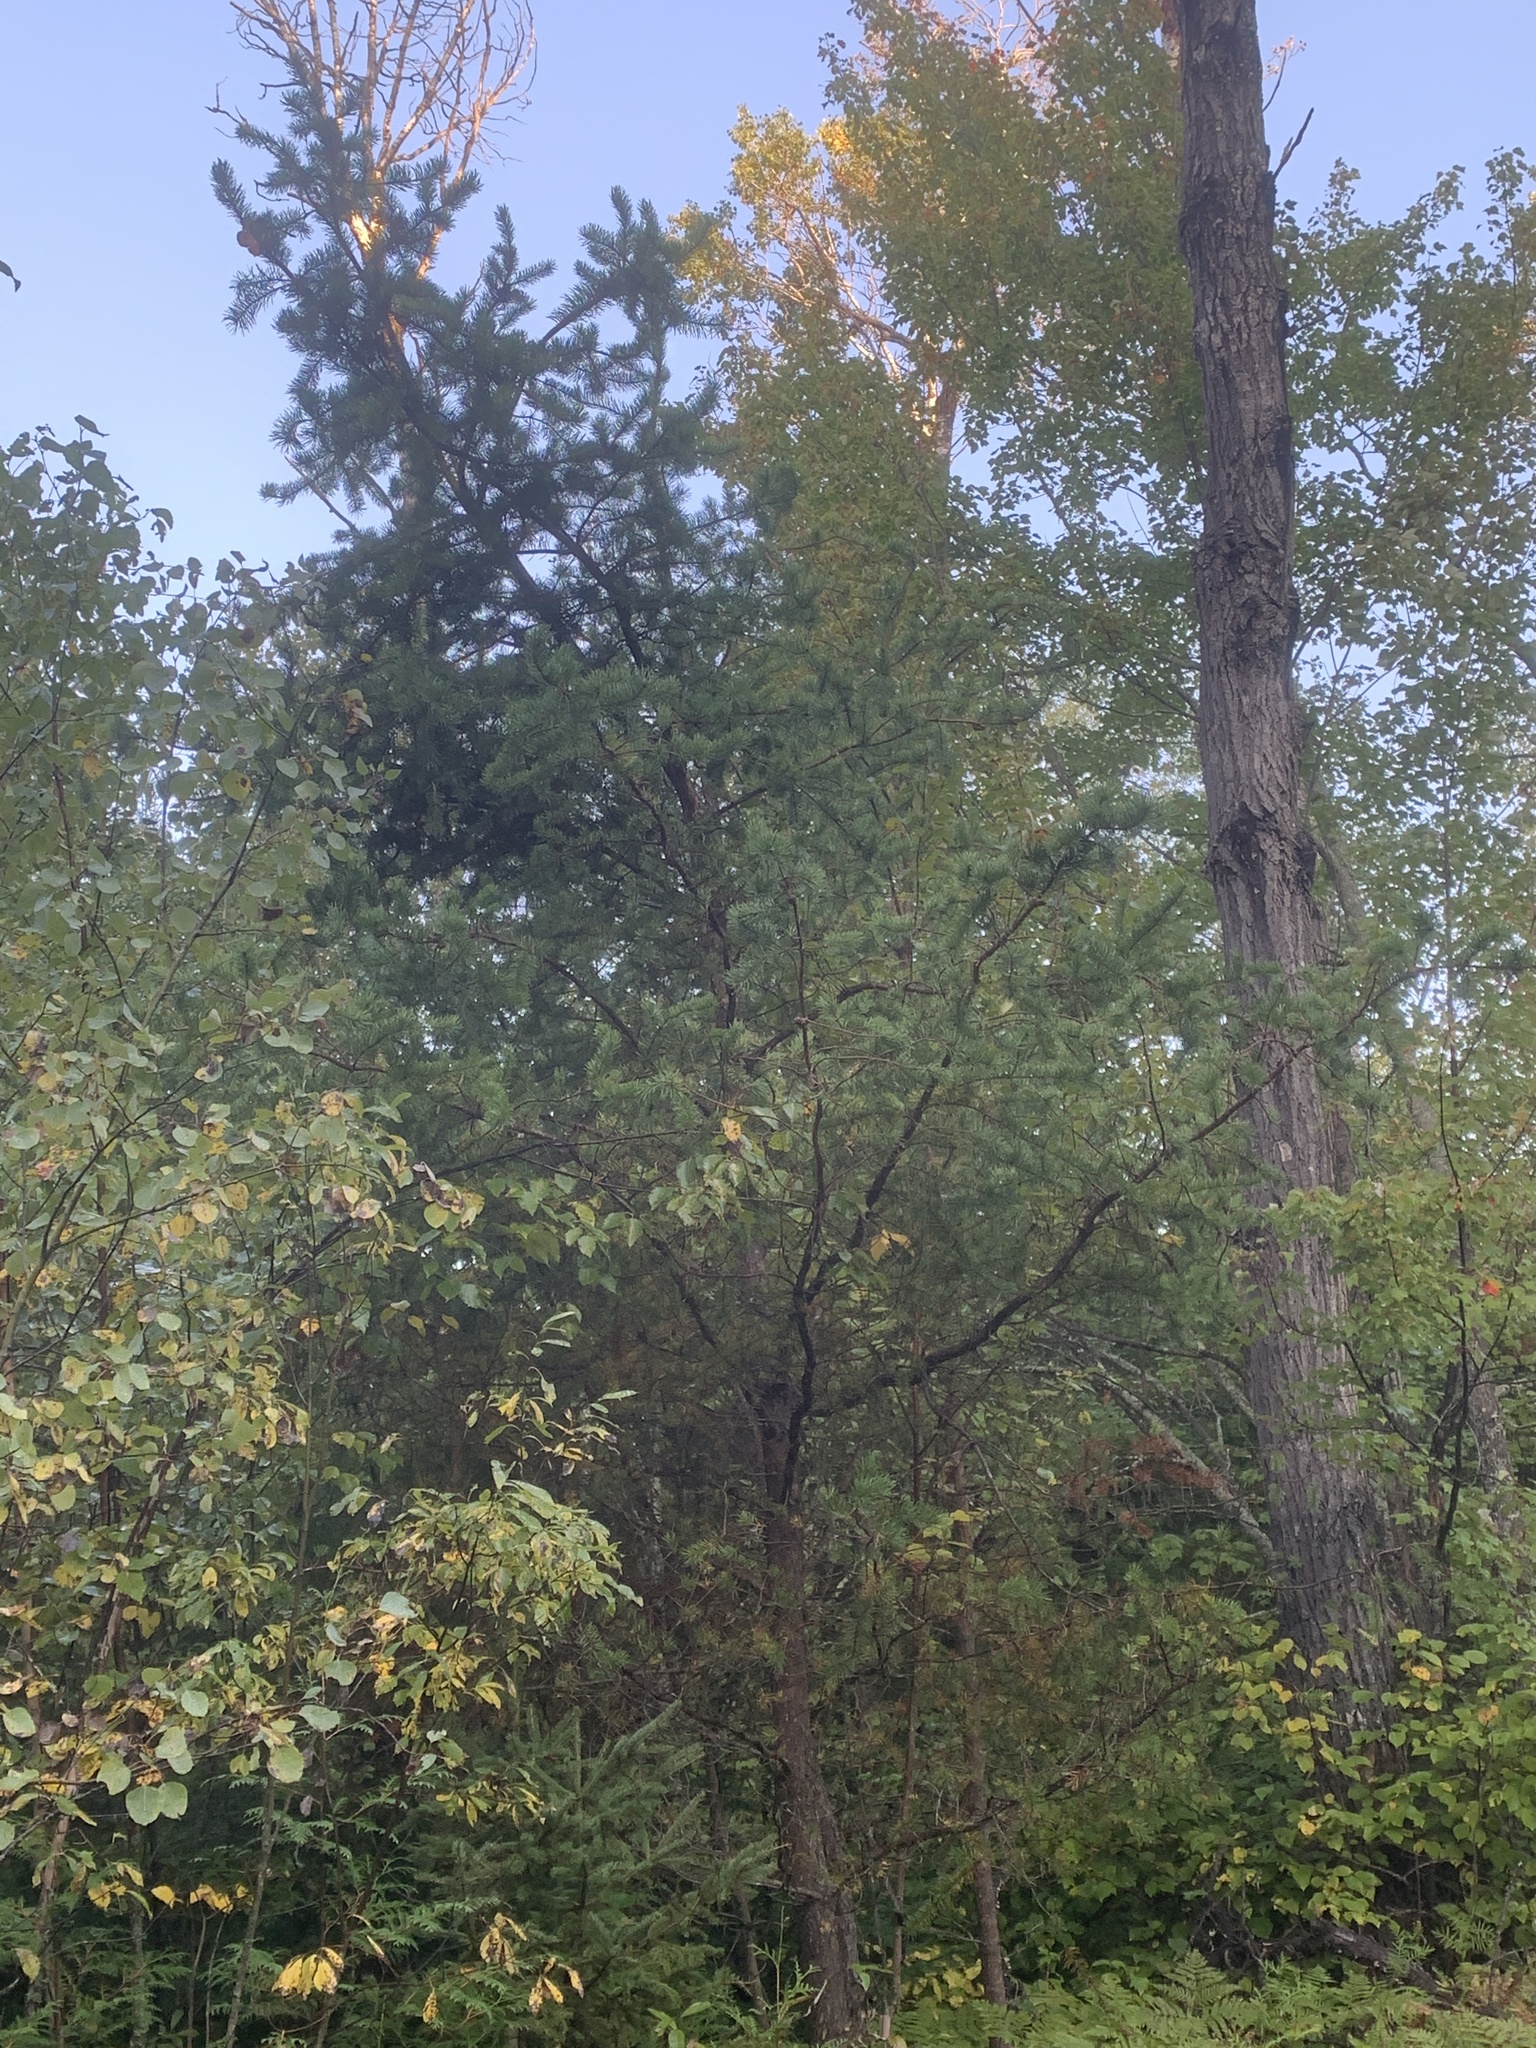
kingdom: Plantae
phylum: Tracheophyta
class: Pinopsida
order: Pinales
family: Pinaceae
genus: Pinus
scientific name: Pinus banksiana
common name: Jack pine
